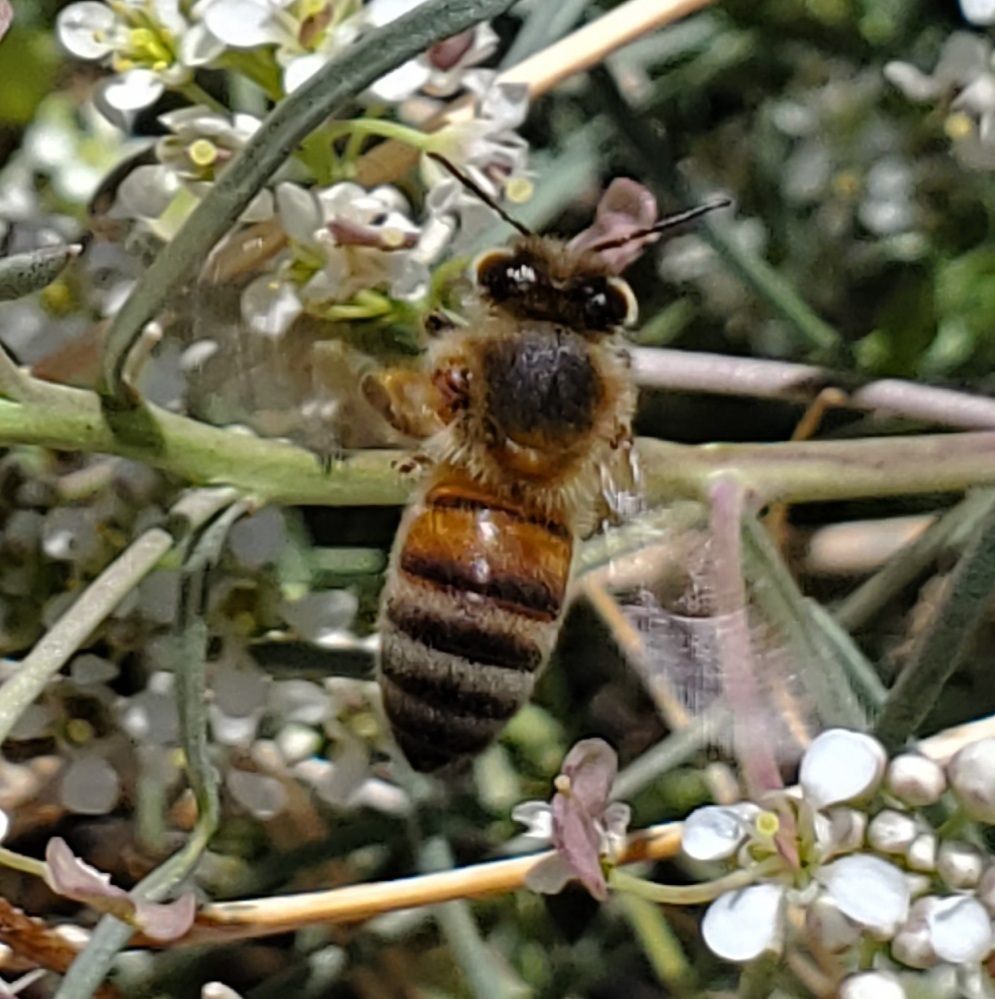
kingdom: Animalia
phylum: Arthropoda
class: Insecta
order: Hymenoptera
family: Apidae
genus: Apis
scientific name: Apis mellifera
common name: Honey bee
